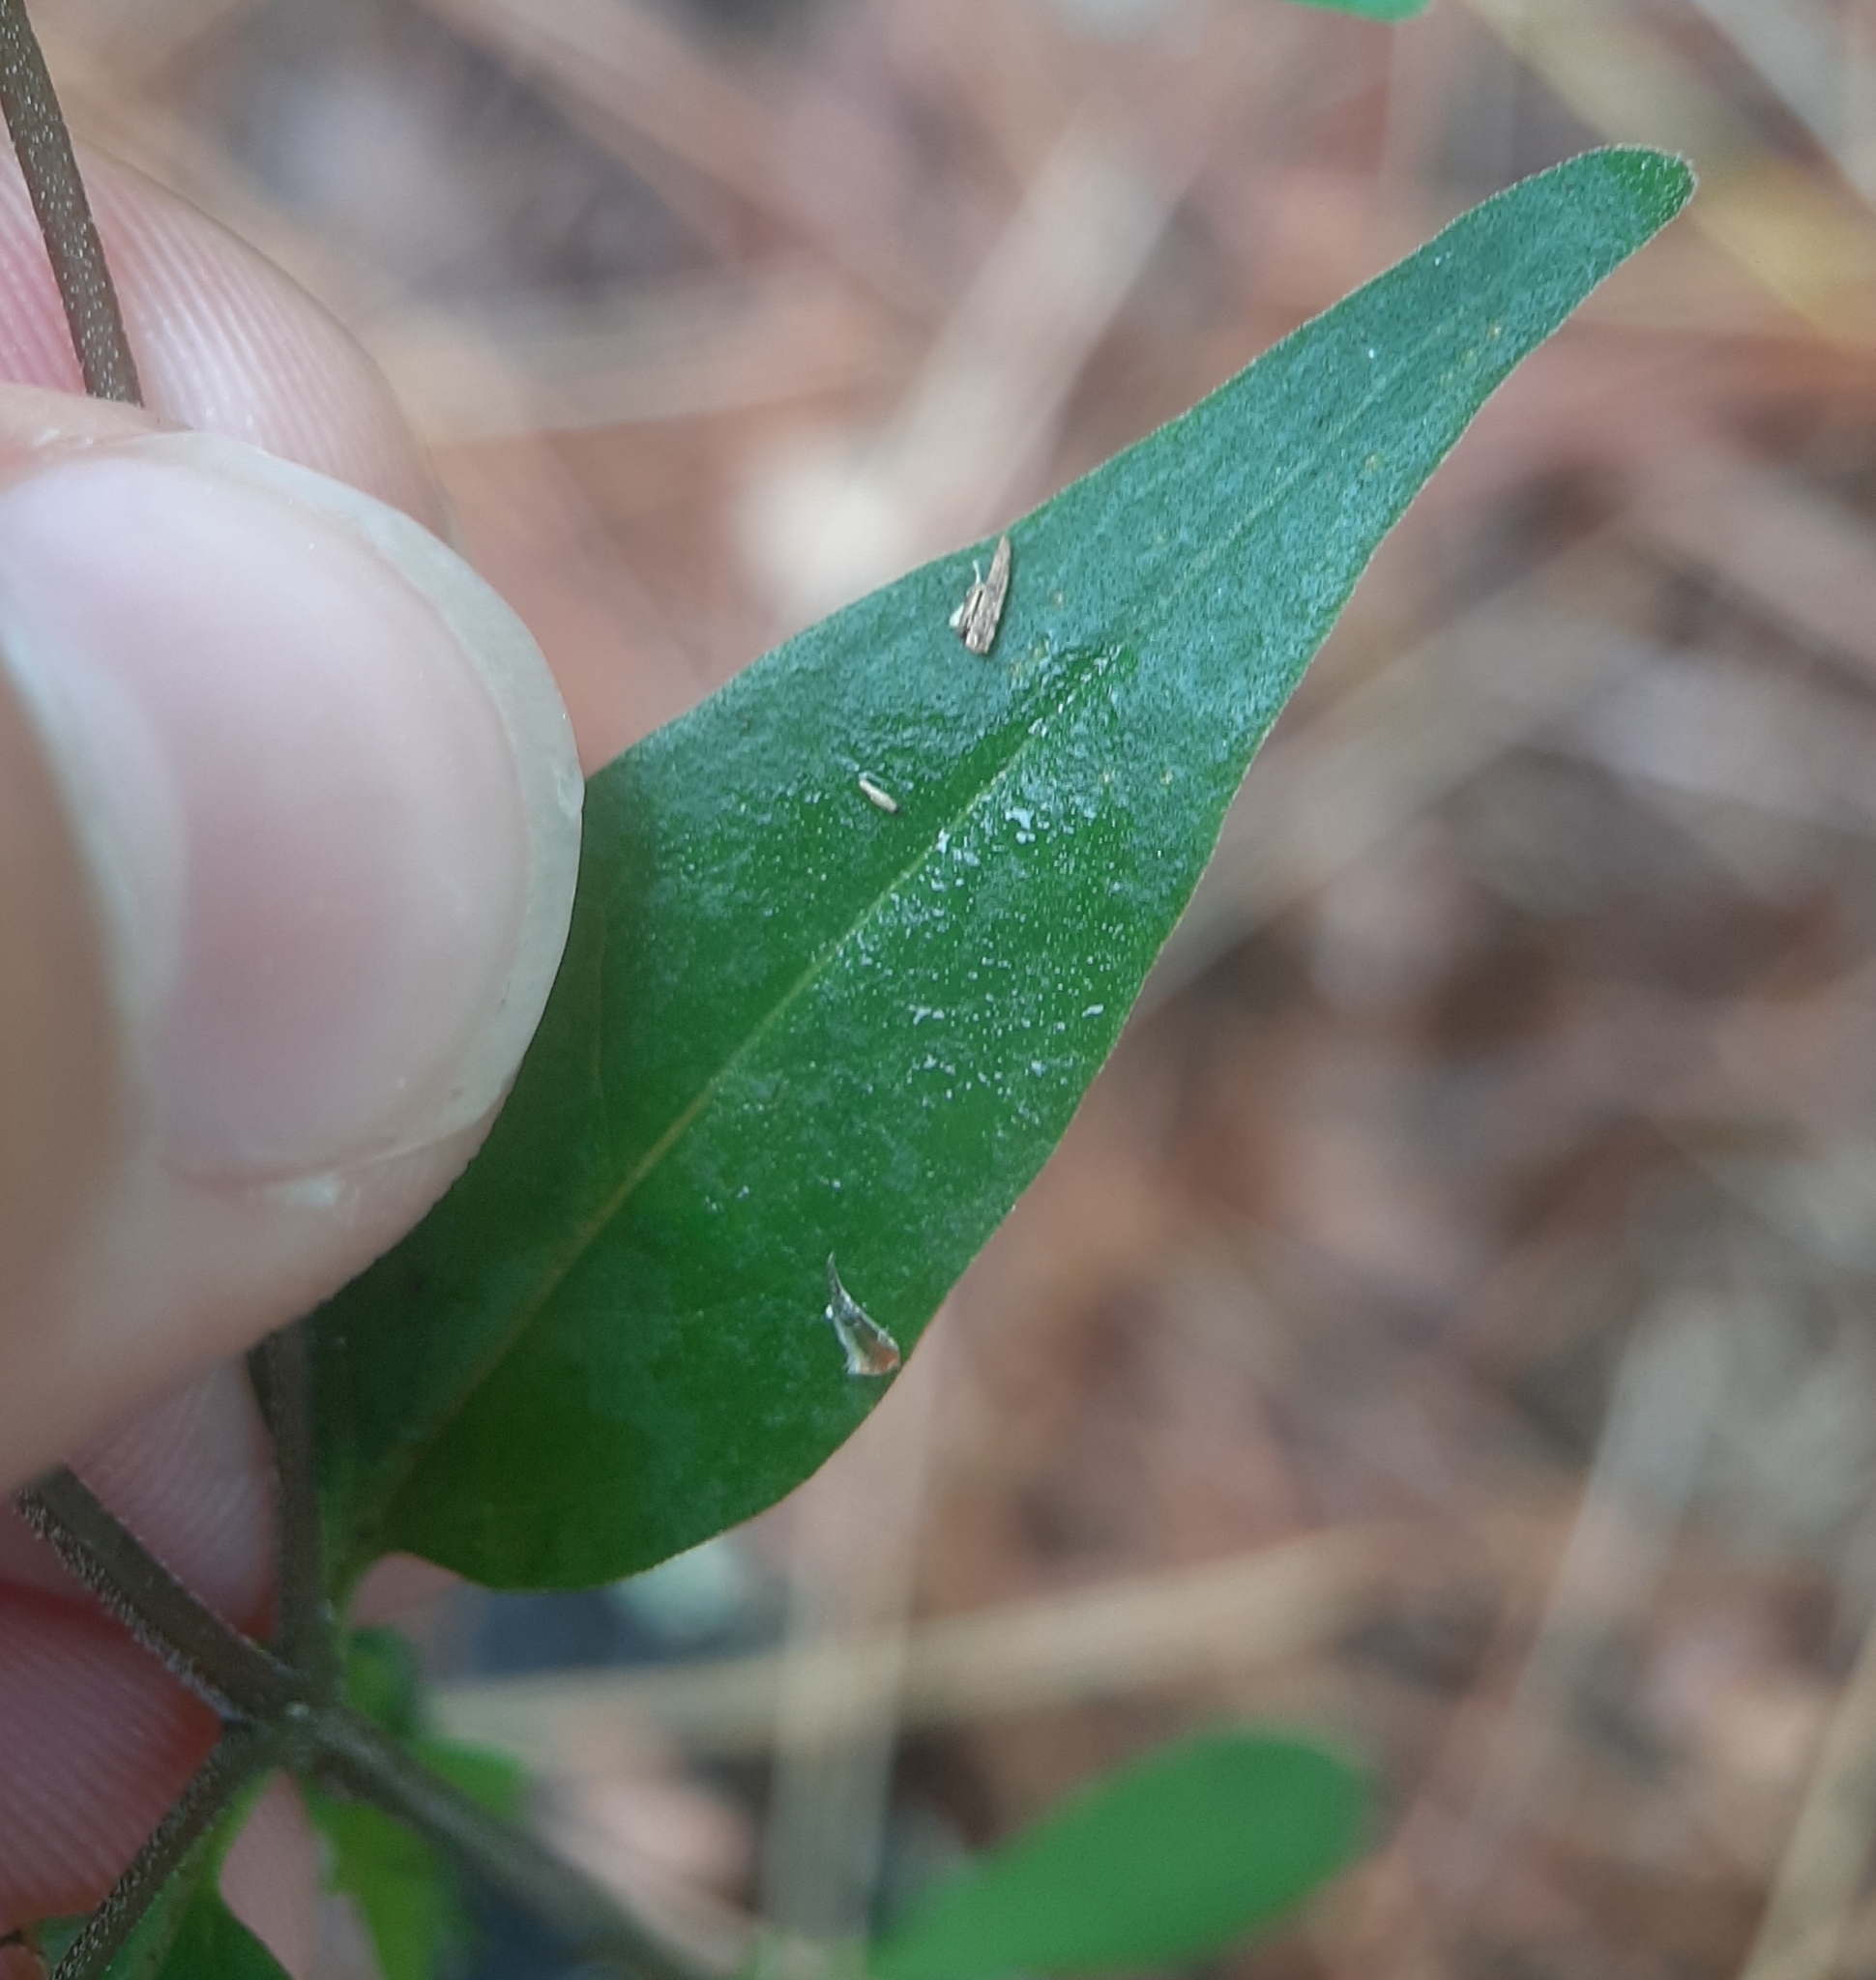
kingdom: Plantae
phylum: Tracheophyta
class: Magnoliopsida
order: Lamiales
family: Orobanchaceae
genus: Melampyrum
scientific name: Melampyrum lineare
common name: American cow-wheat
